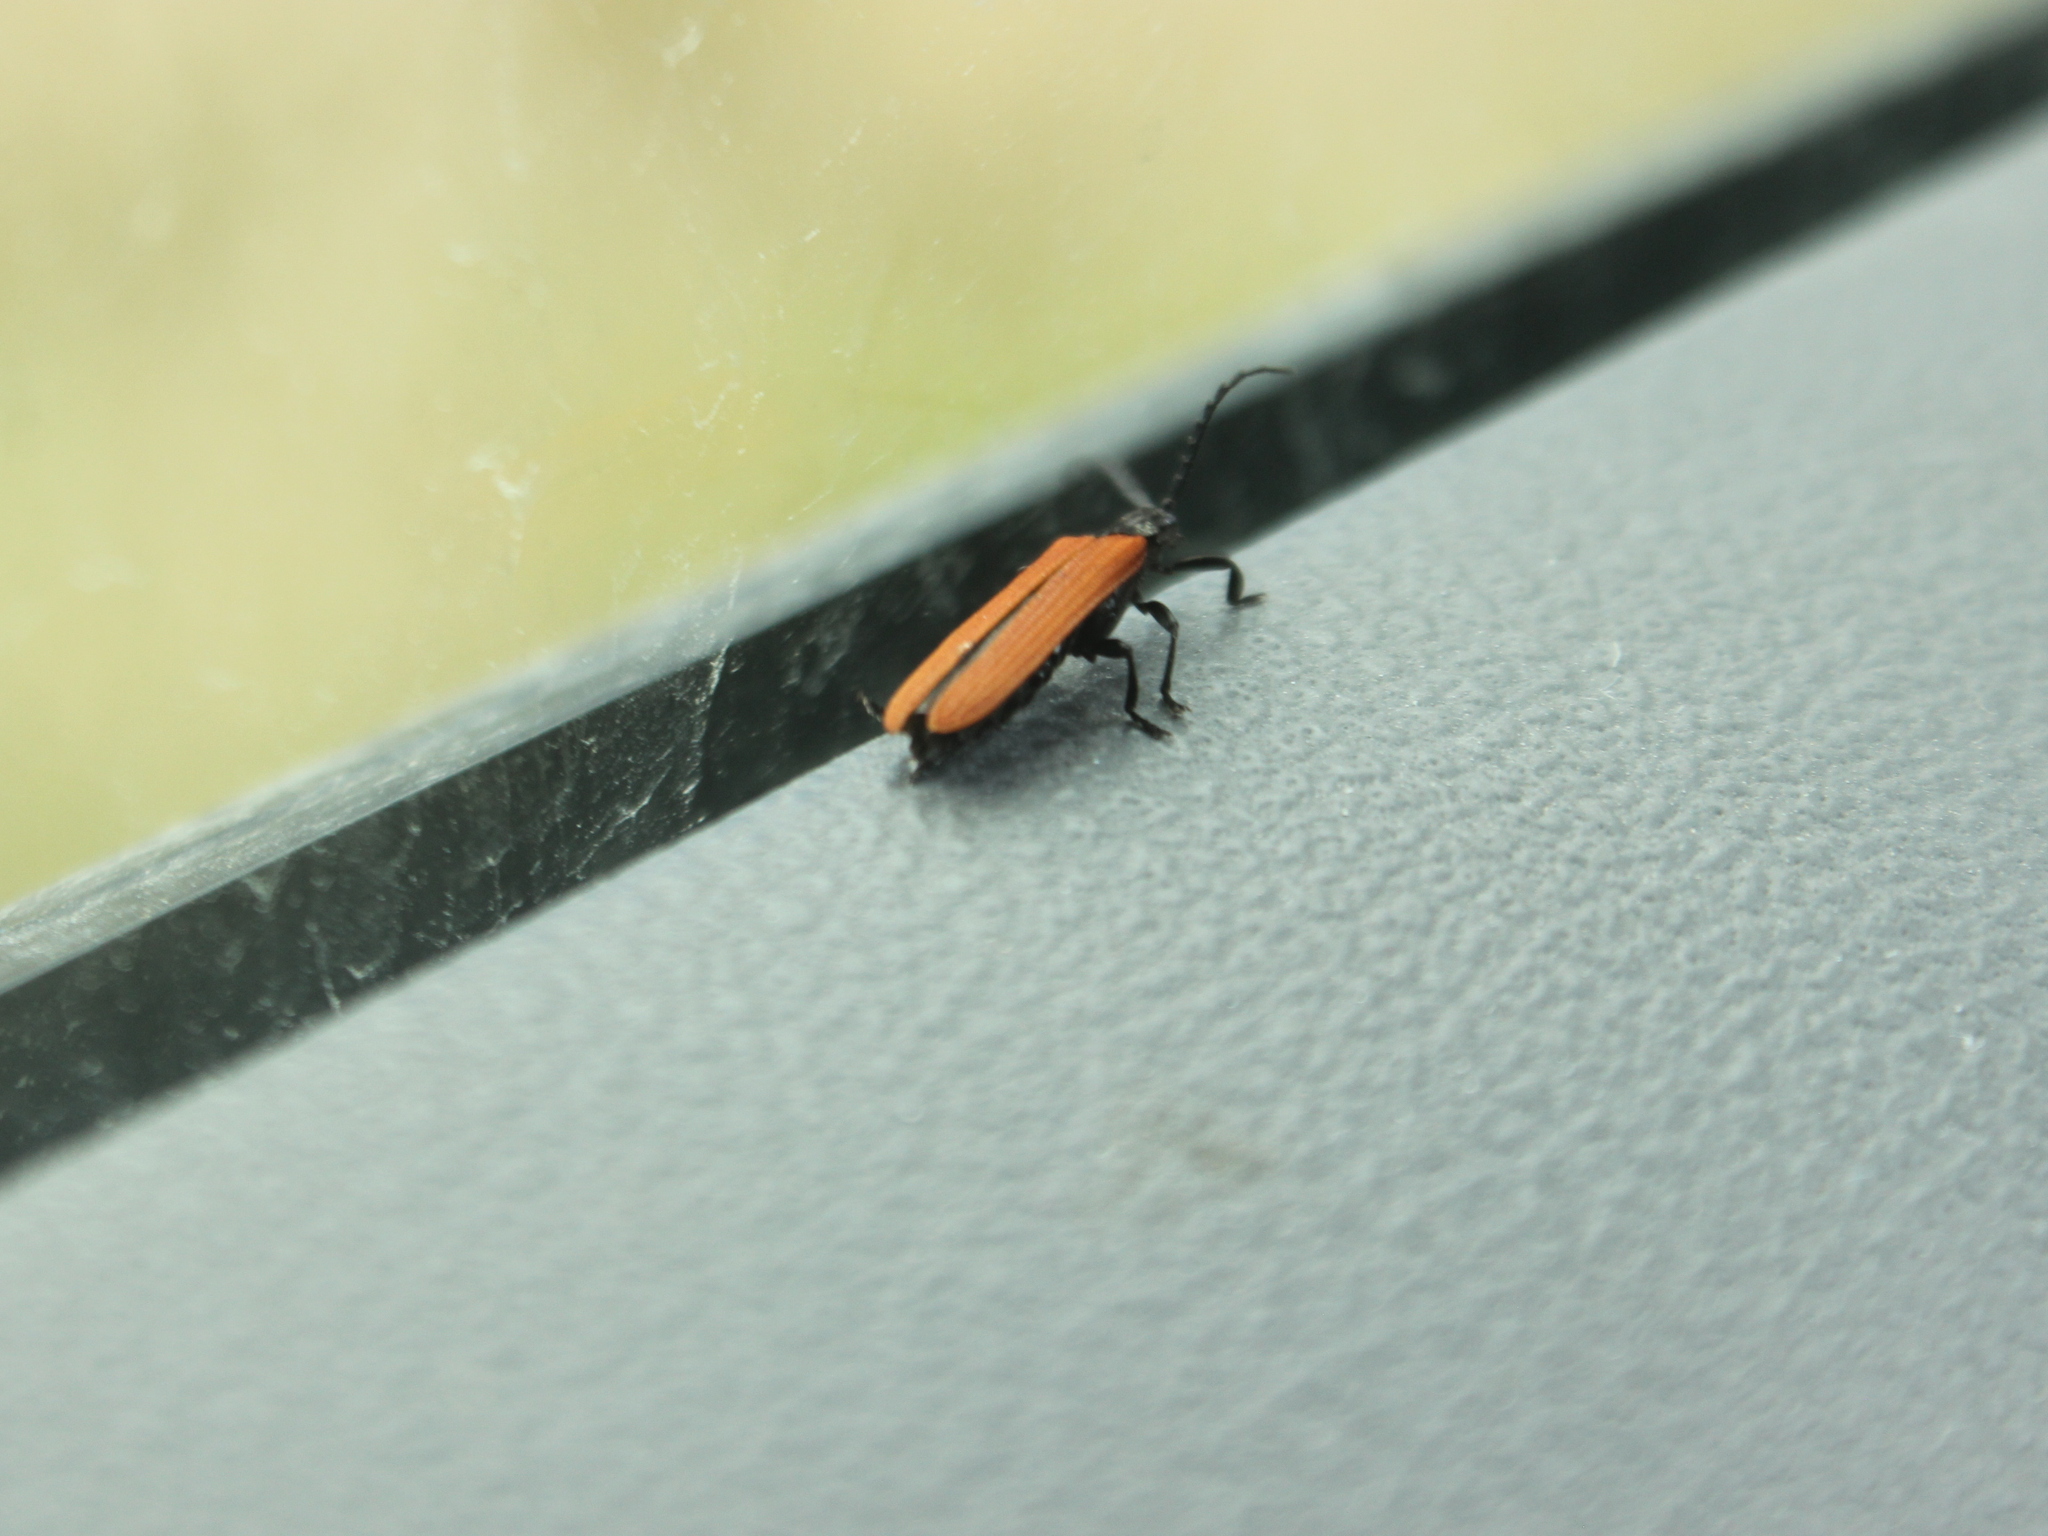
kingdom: Animalia
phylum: Arthropoda
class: Insecta
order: Coleoptera
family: Lycidae
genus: Porrostoma
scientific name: Porrostoma rufipenne
